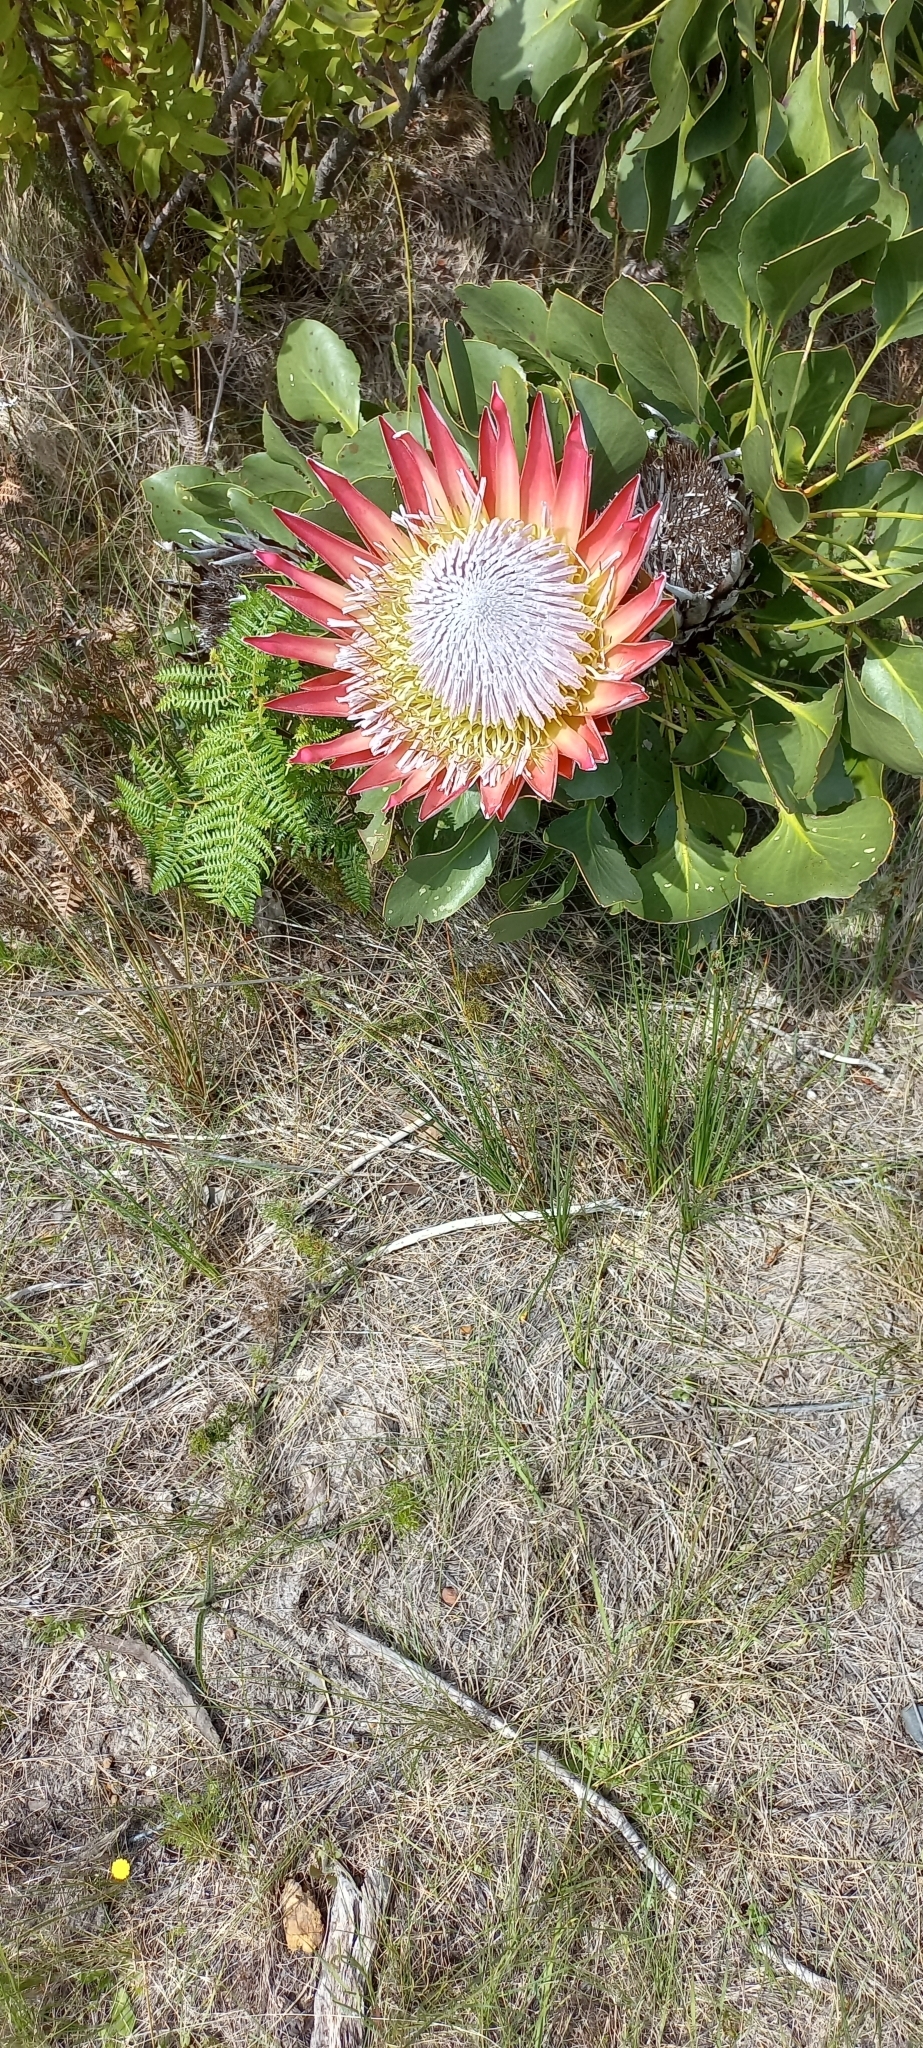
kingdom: Plantae
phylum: Tracheophyta
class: Magnoliopsida
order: Proteales
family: Proteaceae
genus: Protea
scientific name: Protea cynaroides
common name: King protea
